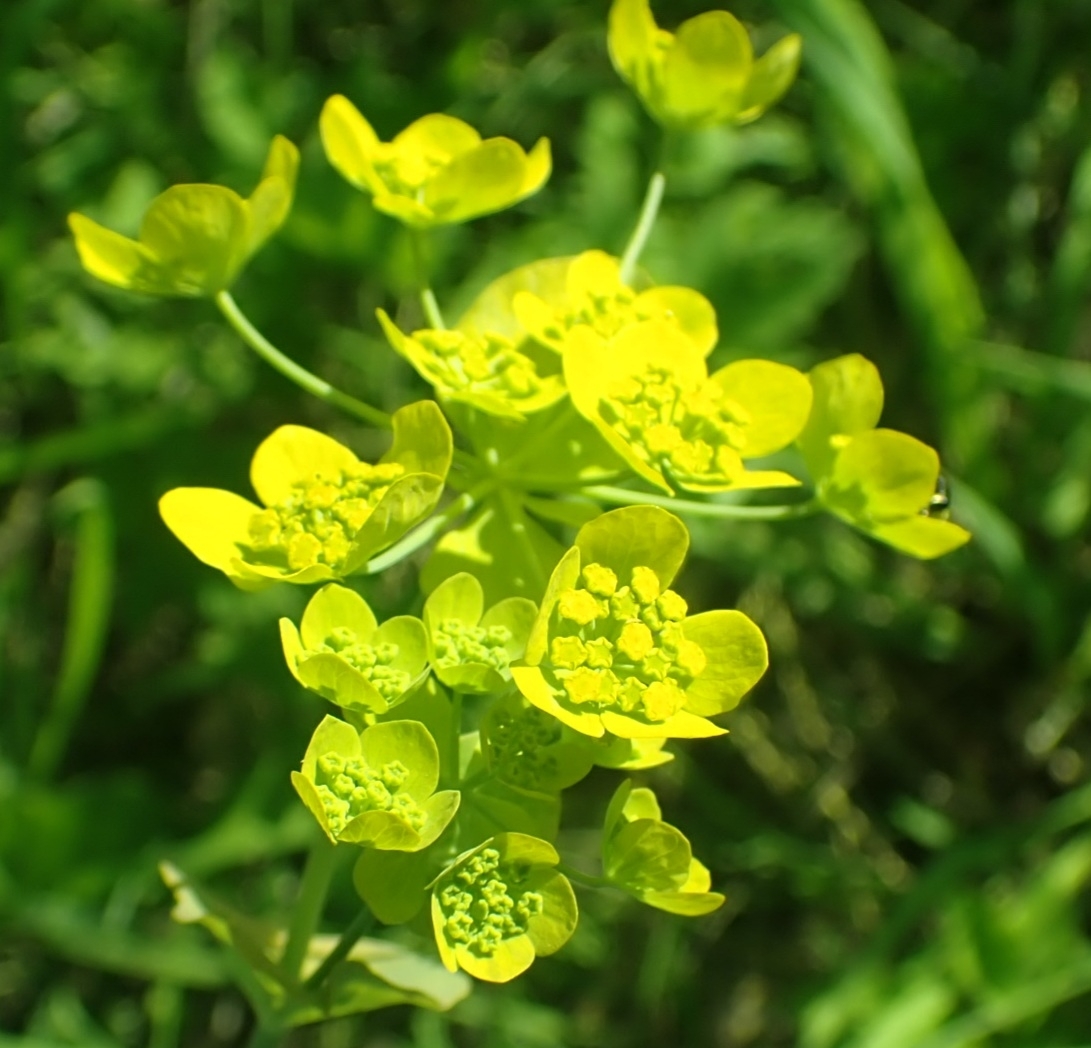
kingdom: Plantae
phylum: Tracheophyta
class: Magnoliopsida
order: Apiales
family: Apiaceae
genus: Bupleurum
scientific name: Bupleurum aureum
